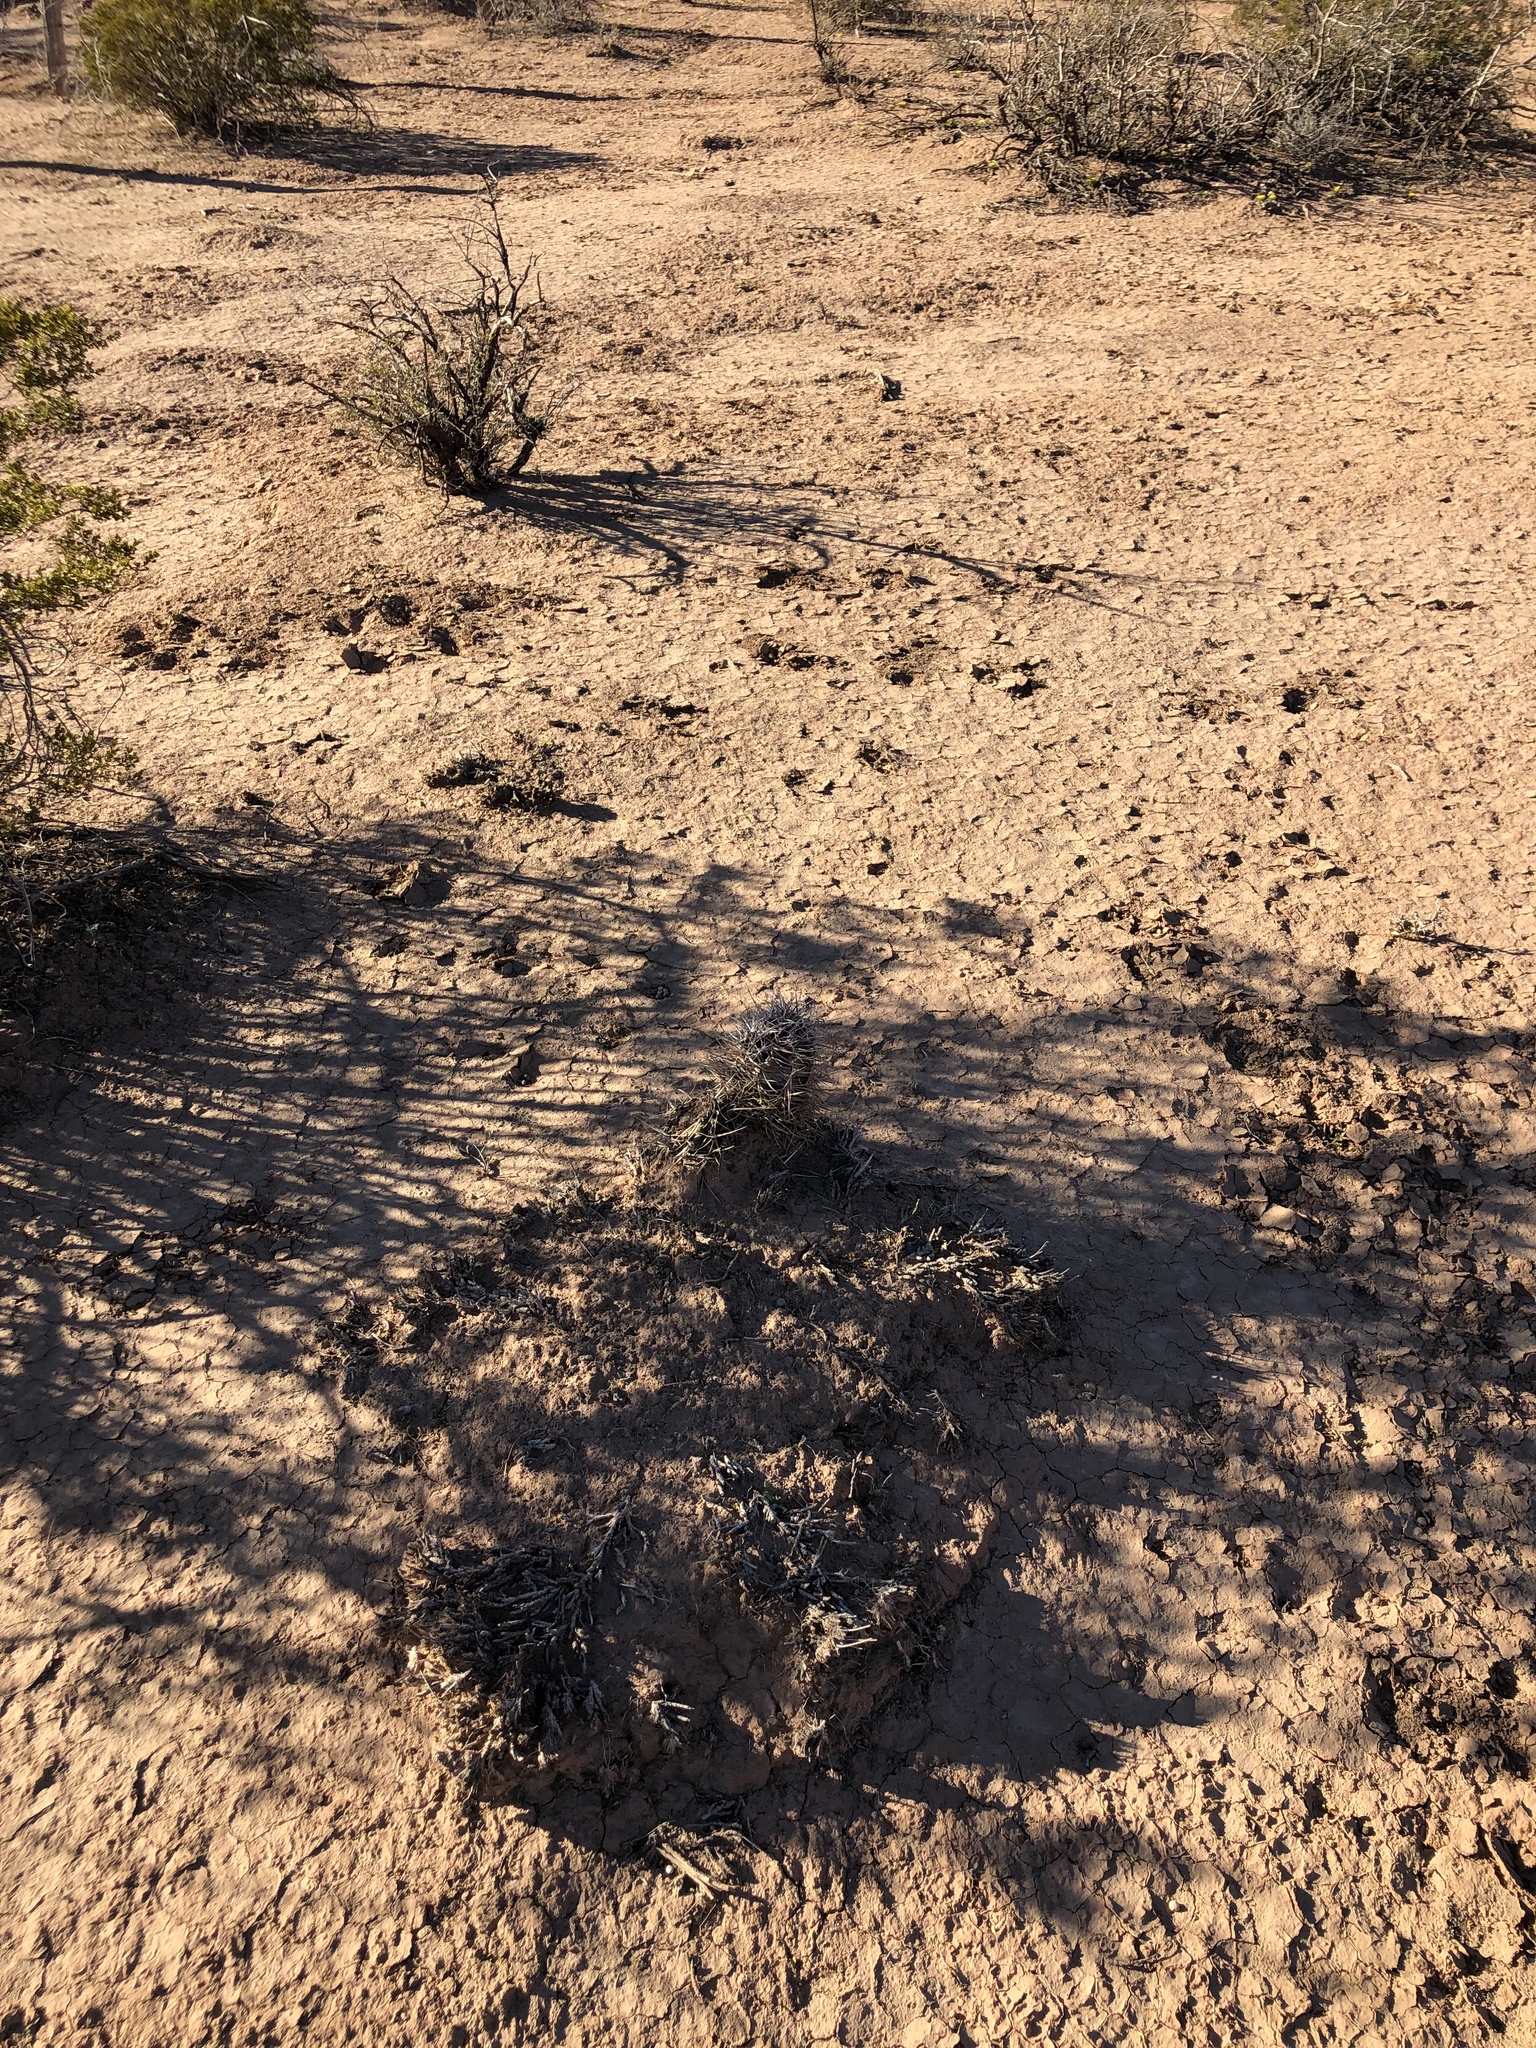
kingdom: Plantae
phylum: Tracheophyta
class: Magnoliopsida
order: Caryophyllales
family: Cactaceae
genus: Echinocereus
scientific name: Echinocereus triglochidiatus
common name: Claretcup hedgehog
